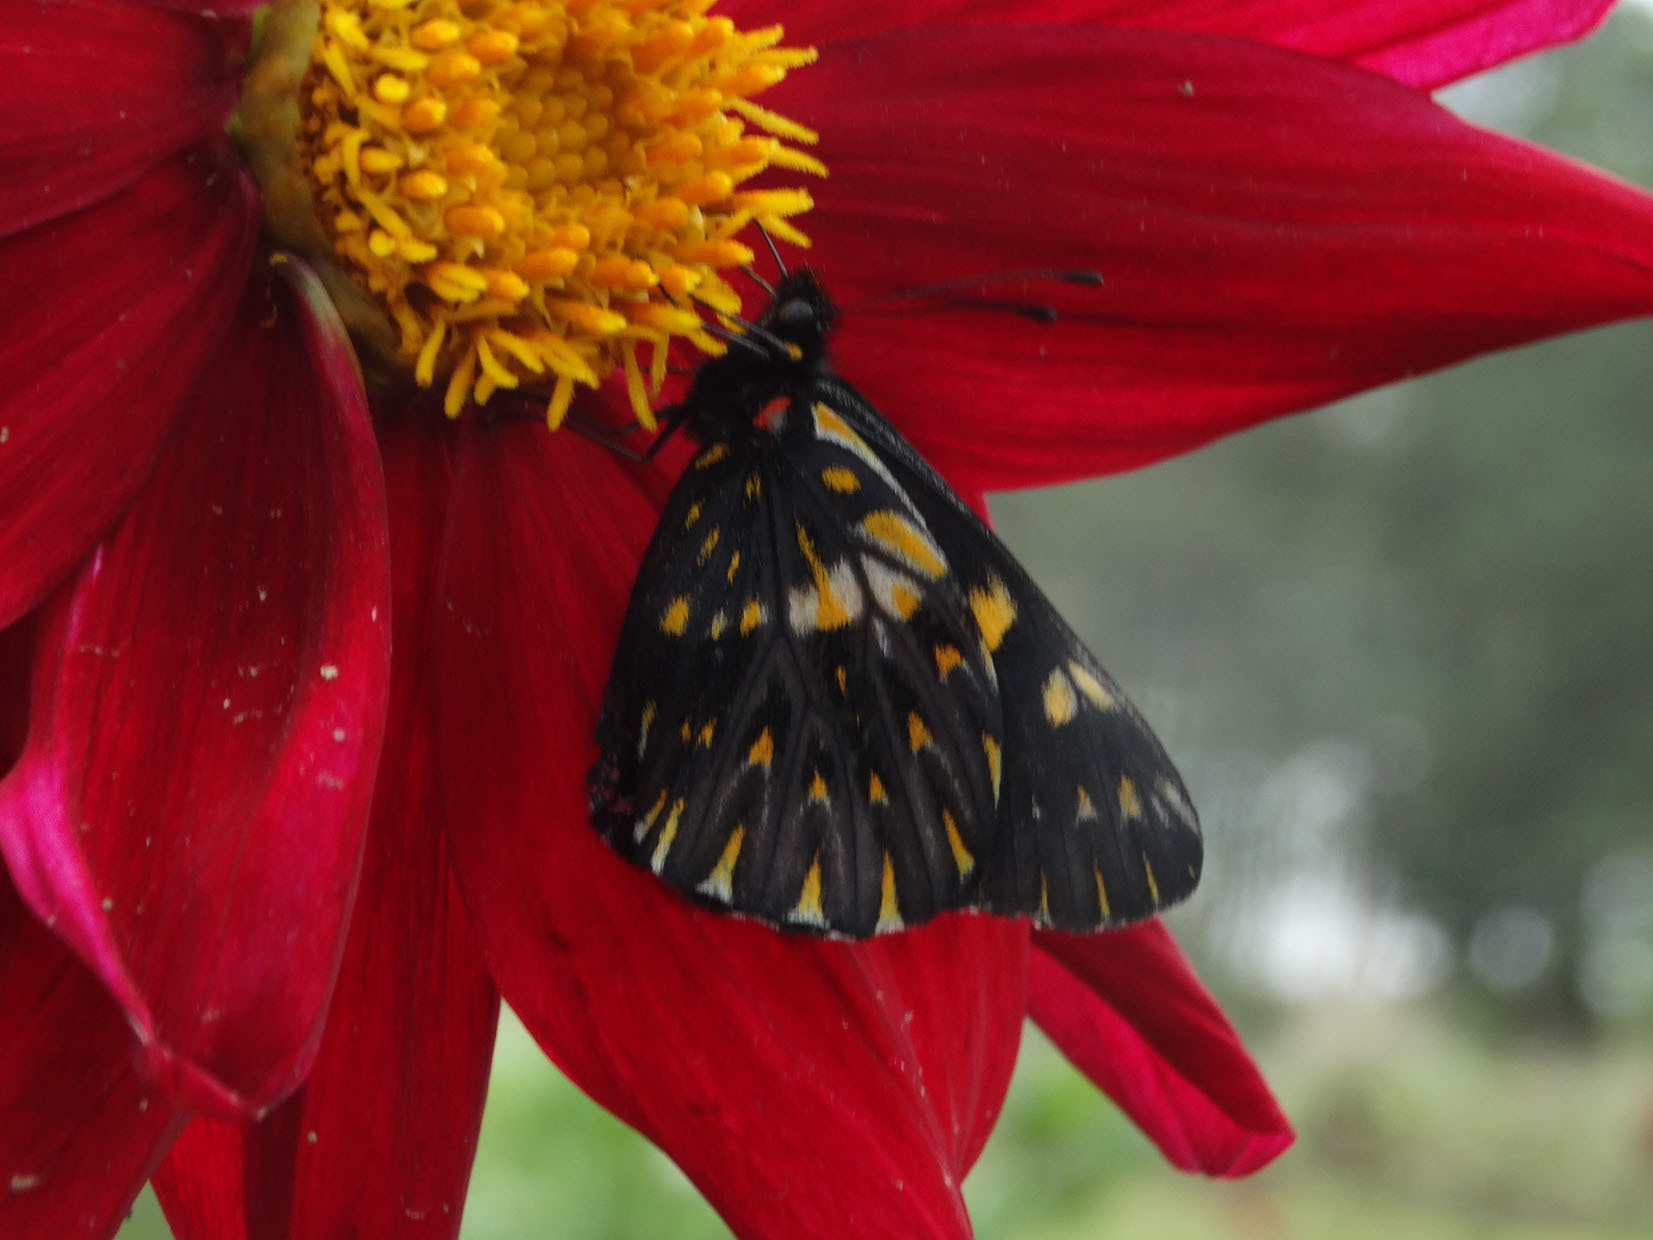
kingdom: Animalia
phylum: Arthropoda
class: Insecta
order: Lepidoptera
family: Pieridae
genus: Archonias
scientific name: Archonias teutila
